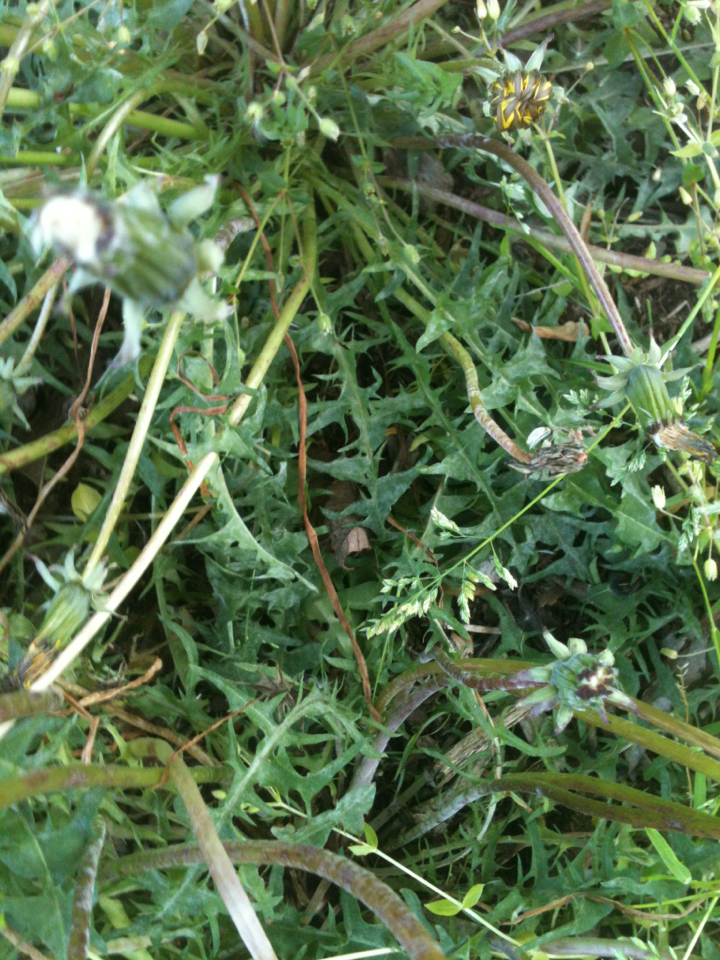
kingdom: Plantae
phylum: Tracheophyta
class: Magnoliopsida
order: Asterales
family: Asteraceae
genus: Taraxacum
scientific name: Taraxacum erythrospermum
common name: Rock dandelion
